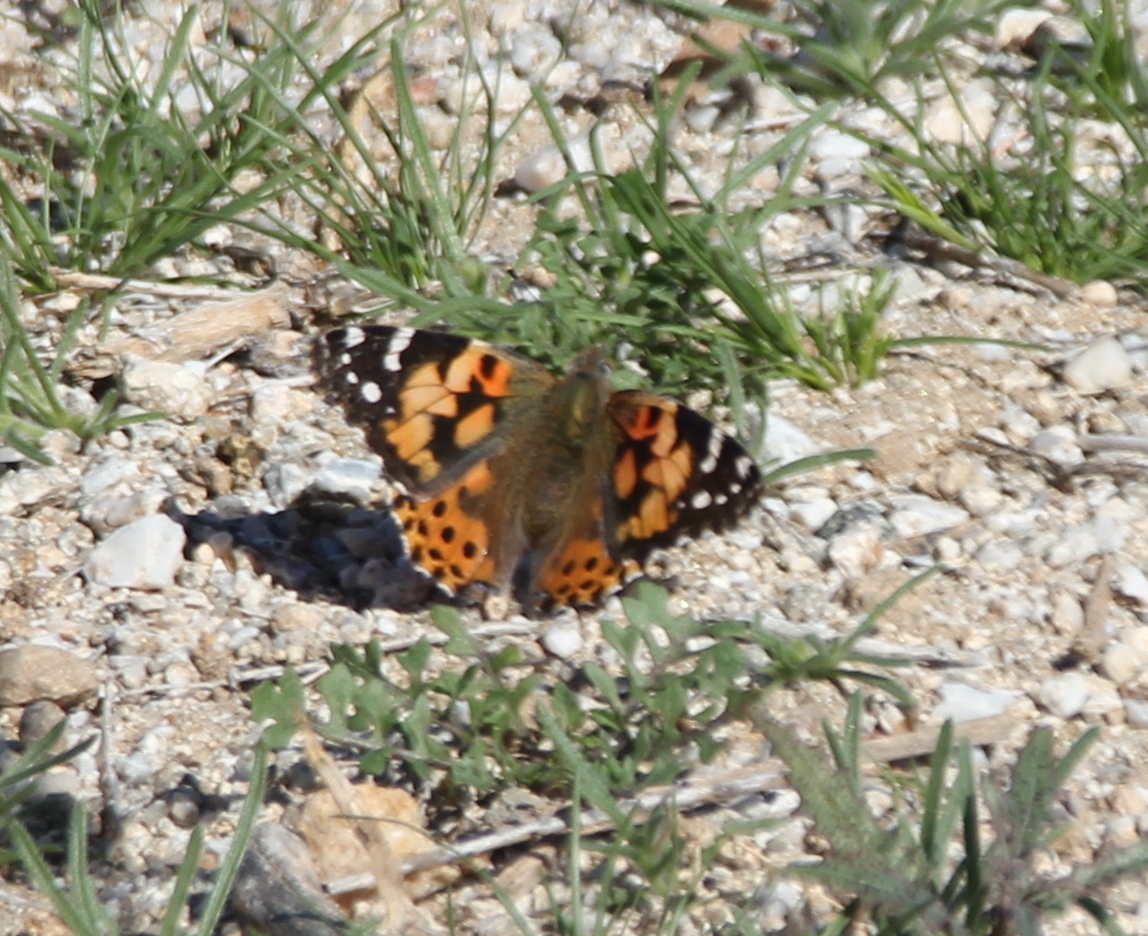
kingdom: Animalia
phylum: Arthropoda
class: Insecta
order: Lepidoptera
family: Nymphalidae
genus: Vanessa
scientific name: Vanessa cardui
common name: Painted lady
